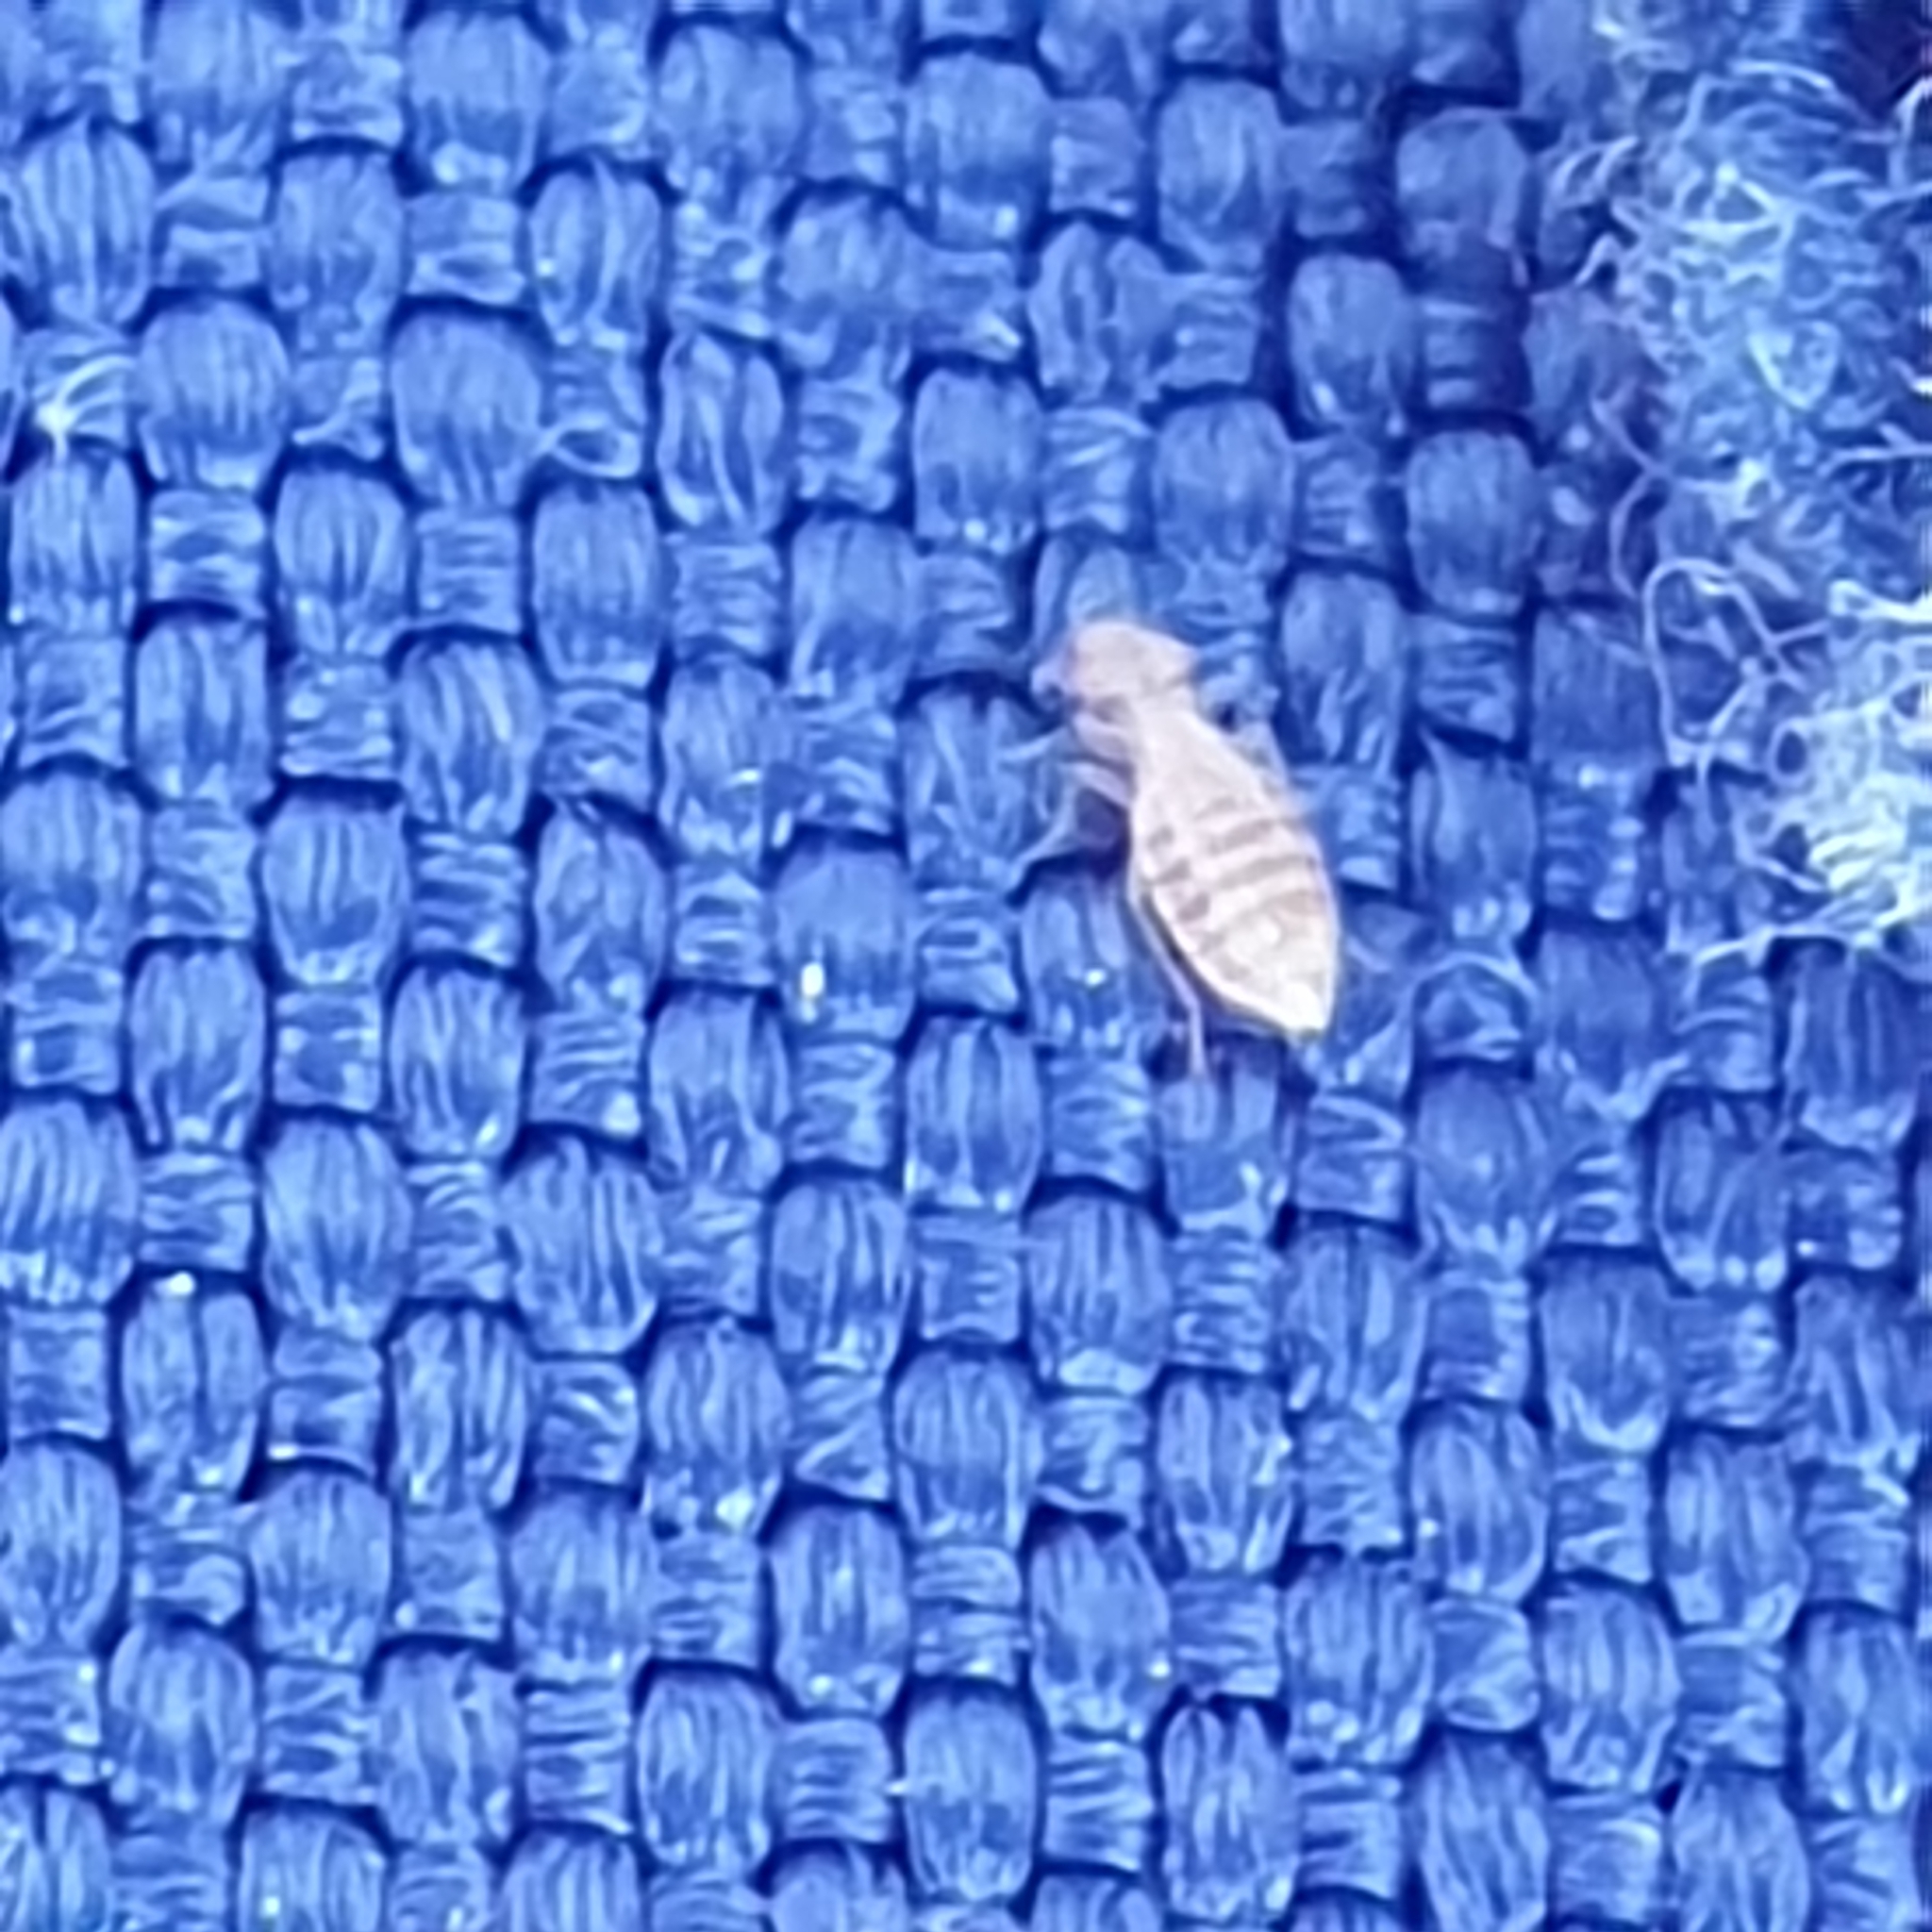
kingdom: Animalia
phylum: Arthropoda
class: Insecta
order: Psocodea
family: Trogiidae
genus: Trogium
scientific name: Trogium pulsatorium
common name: Granary book louse
